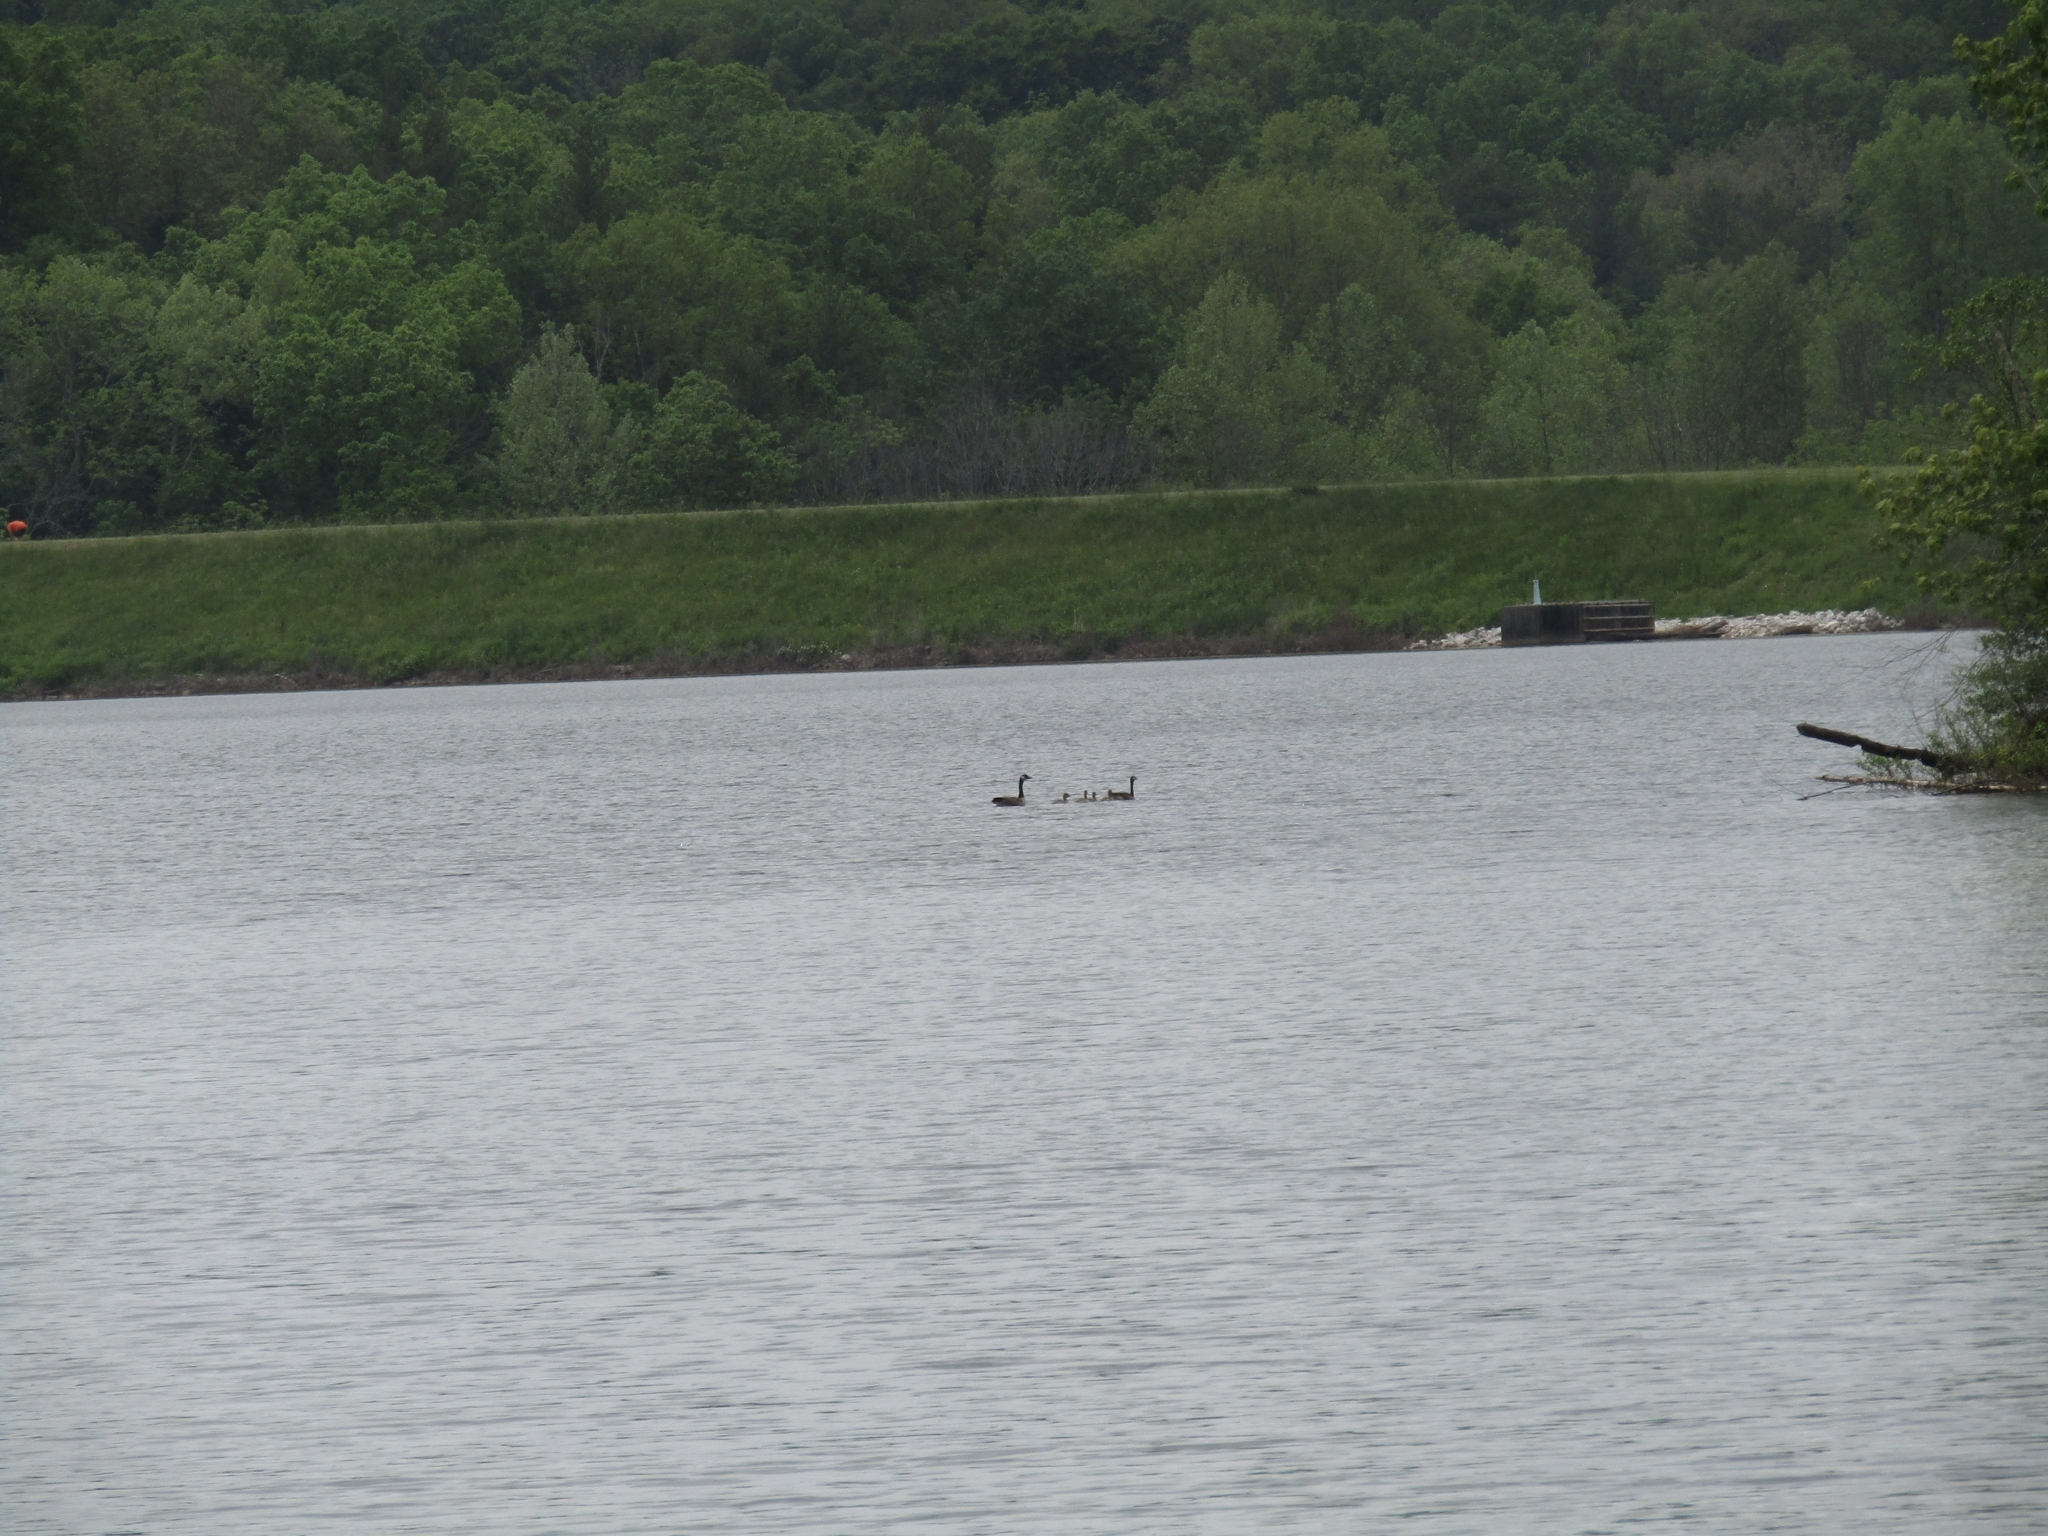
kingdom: Animalia
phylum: Chordata
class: Aves
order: Anseriformes
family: Anatidae
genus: Branta
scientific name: Branta canadensis
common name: Canada goose
